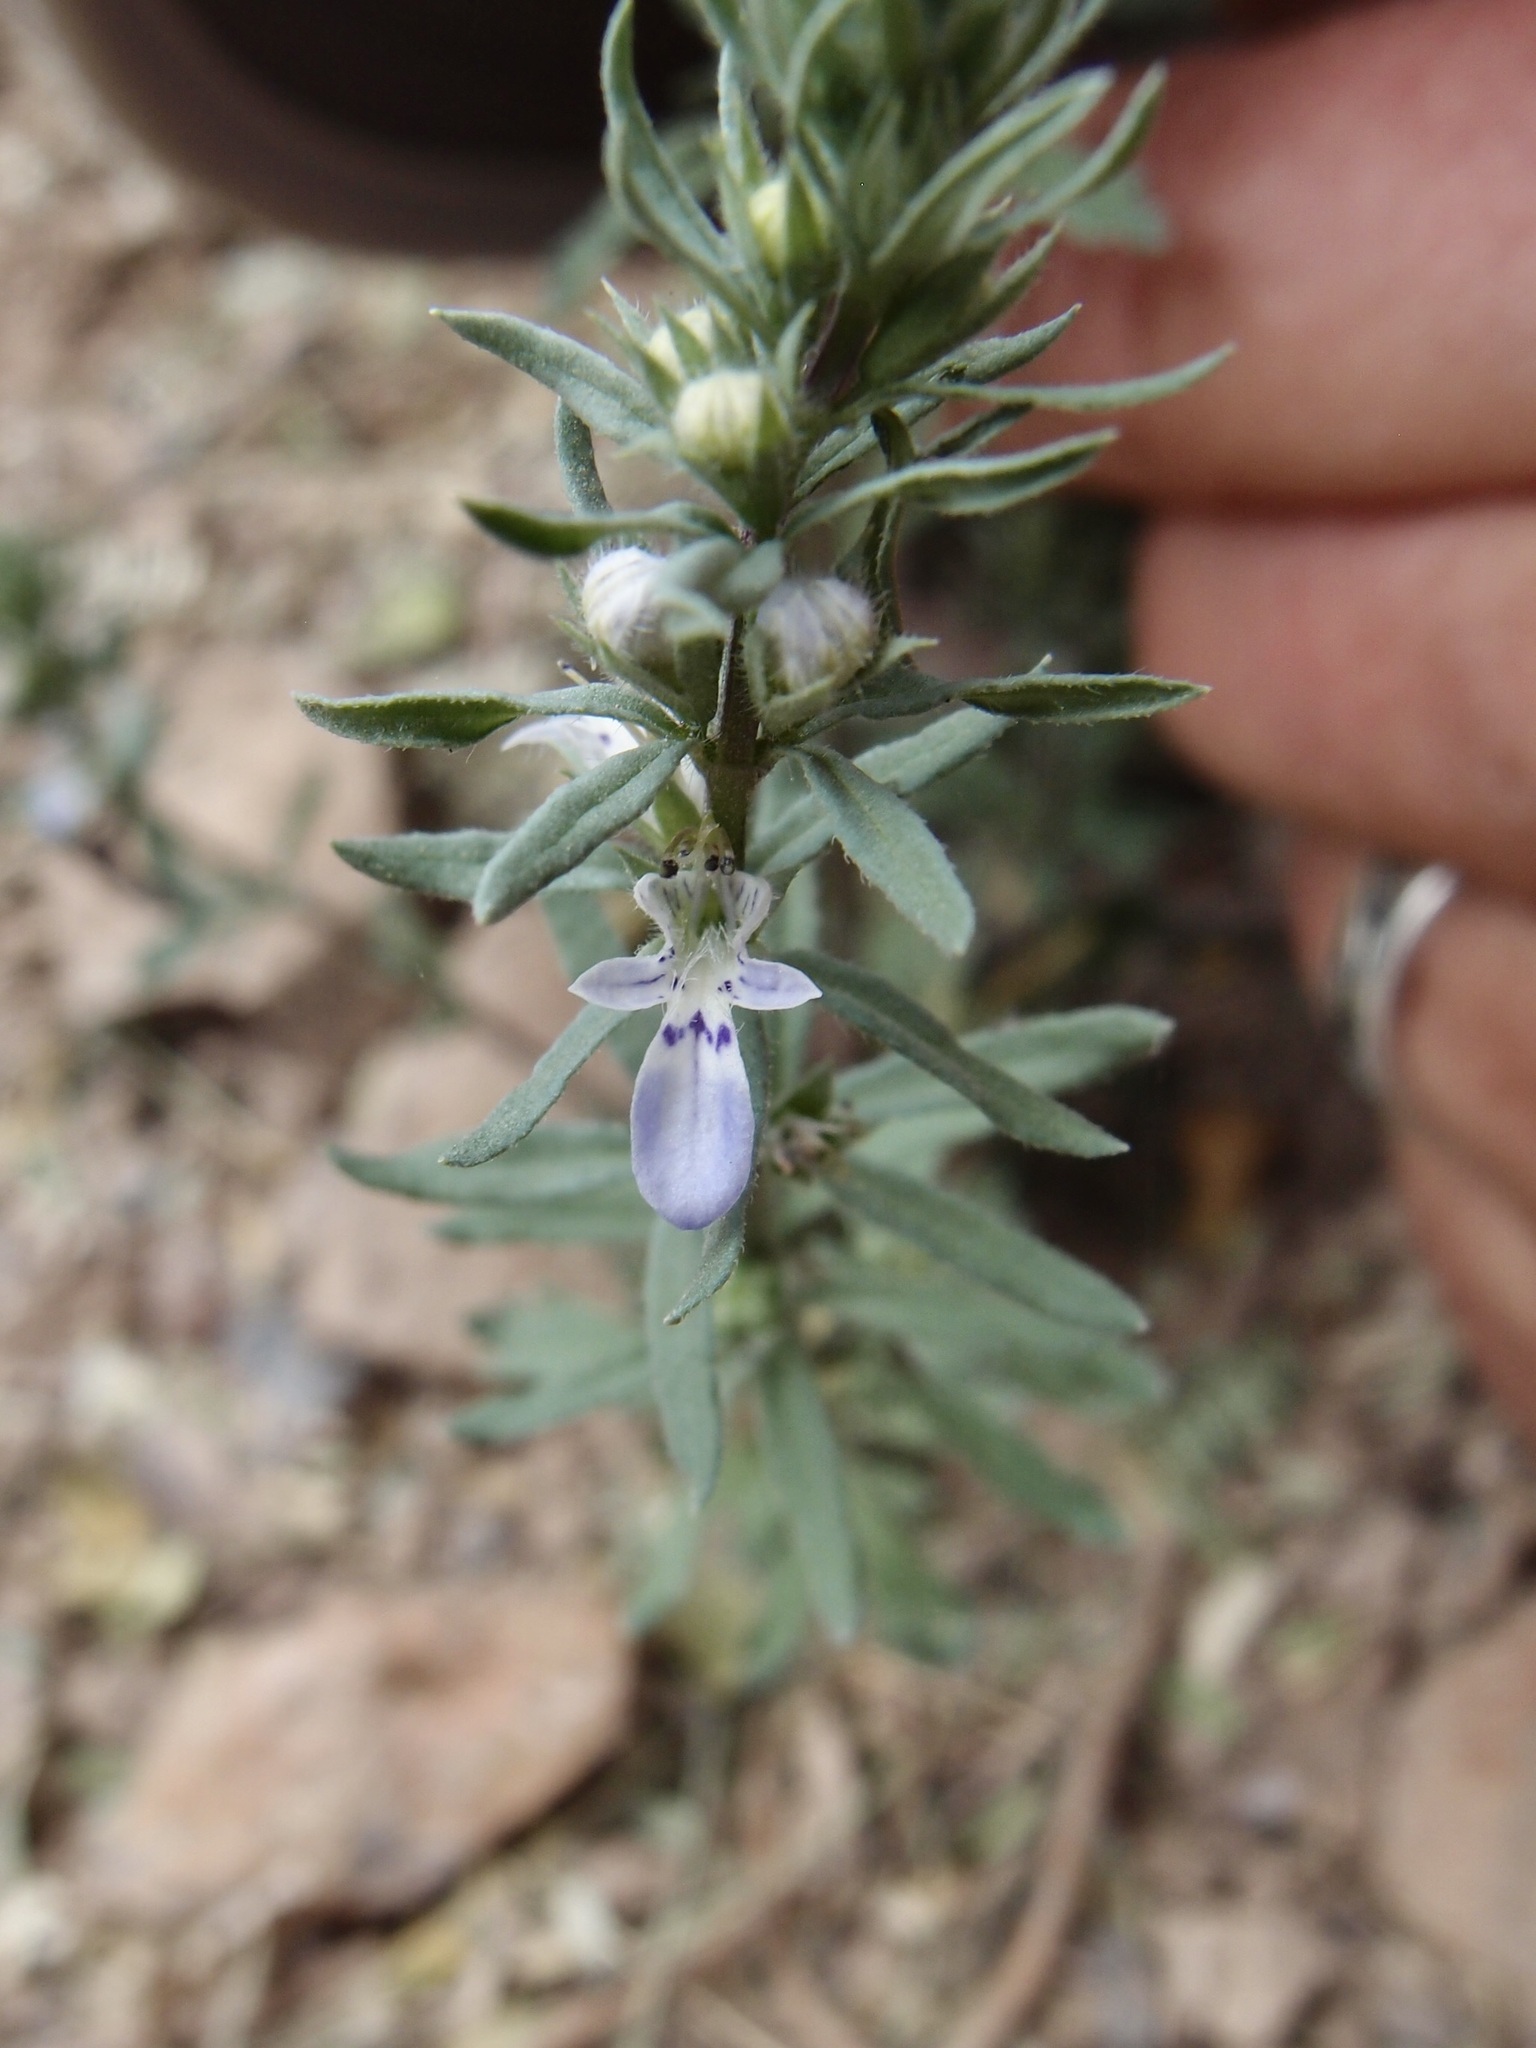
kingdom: Plantae
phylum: Tracheophyta
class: Magnoliopsida
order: Lamiales
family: Lamiaceae
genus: Teucrium
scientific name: Teucrium cubense
